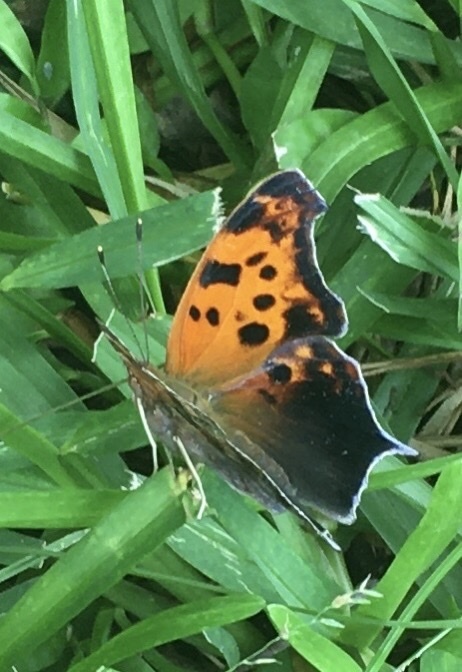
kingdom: Animalia
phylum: Arthropoda
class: Insecta
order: Lepidoptera
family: Nymphalidae
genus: Polygonia
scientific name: Polygonia interrogationis
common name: Question mark
